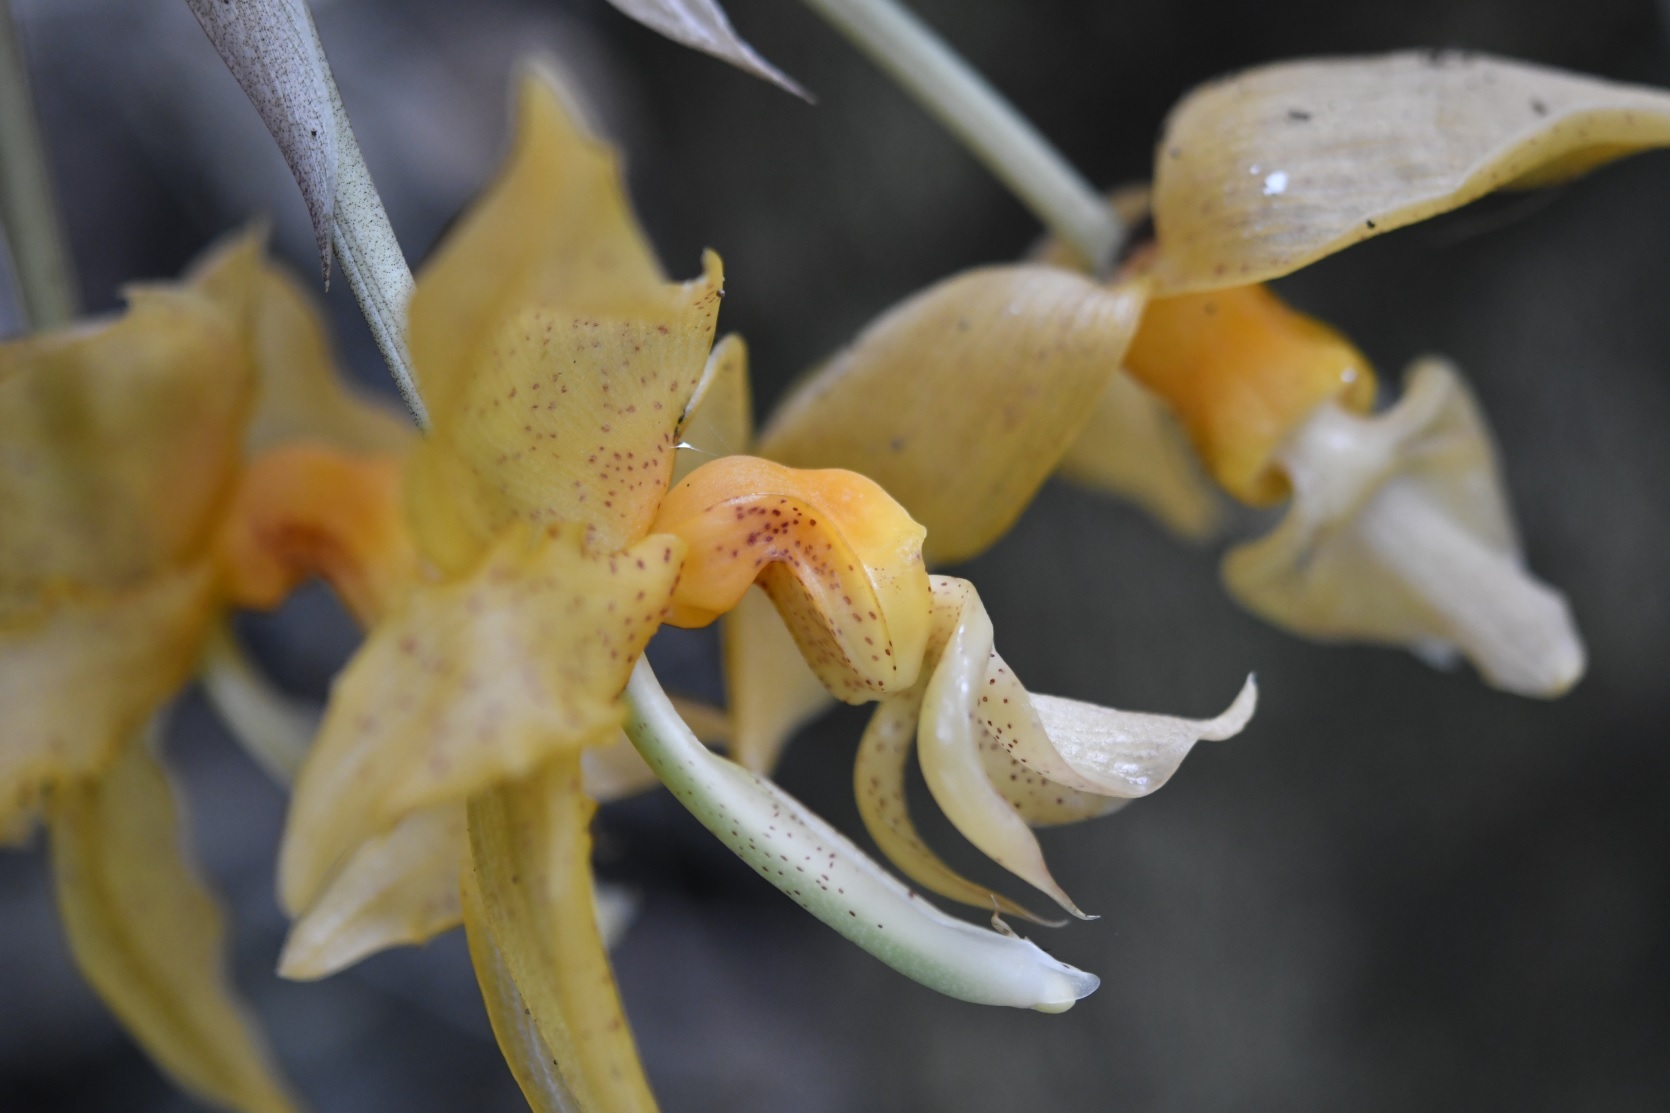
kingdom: Plantae
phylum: Tracheophyta
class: Liliopsida
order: Asparagales
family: Orchidaceae
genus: Stanhopea
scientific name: Stanhopea graveolens
